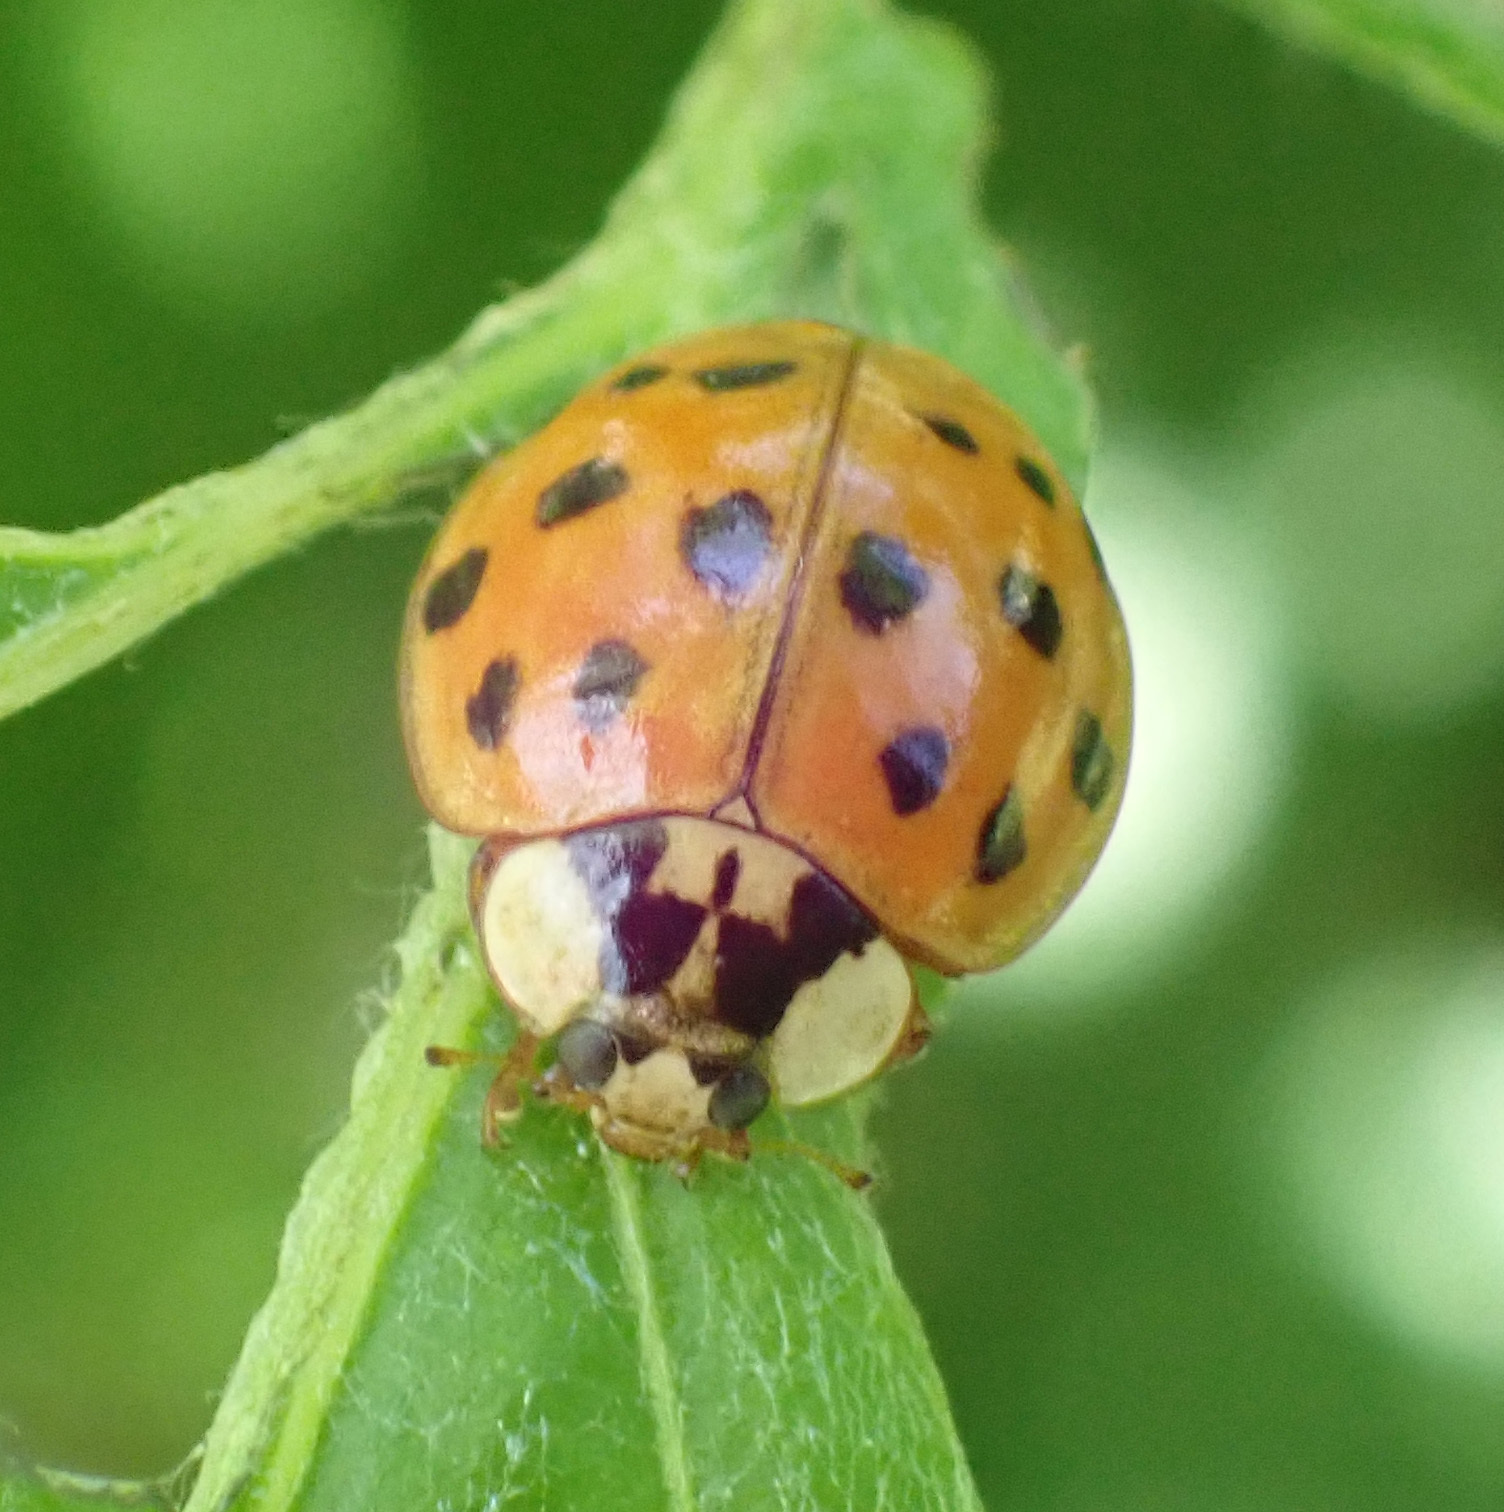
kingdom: Animalia
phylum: Arthropoda
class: Insecta
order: Coleoptera
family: Coccinellidae
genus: Harmonia
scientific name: Harmonia axyridis
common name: Harlequin ladybird
